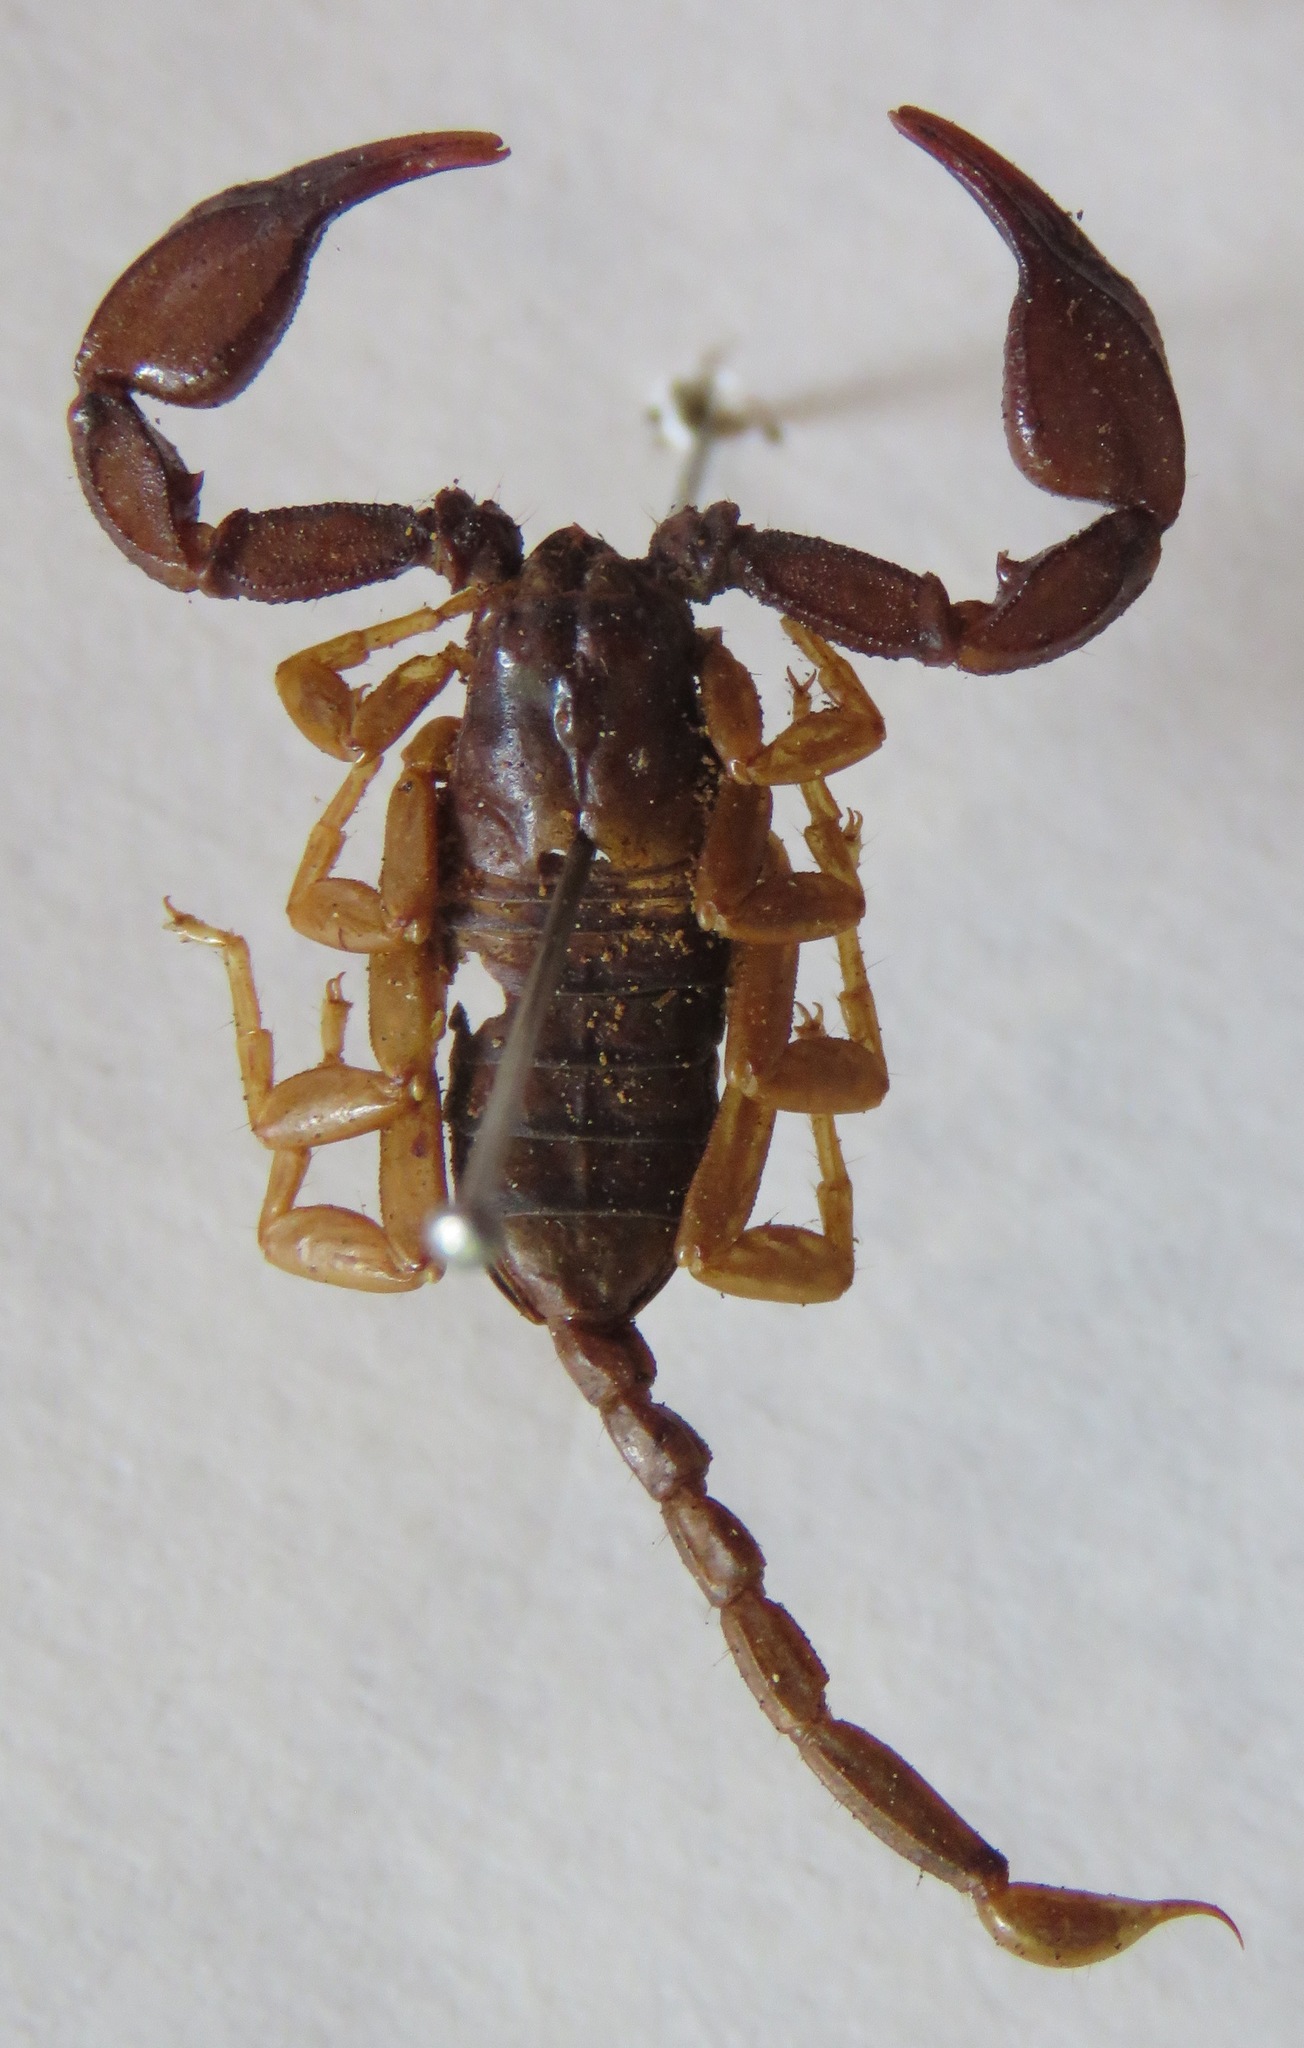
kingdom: Animalia
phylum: Arthropoda
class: Arachnida
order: Scorpiones
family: Euscorpiidae
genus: Euscorpius
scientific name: Euscorpius
